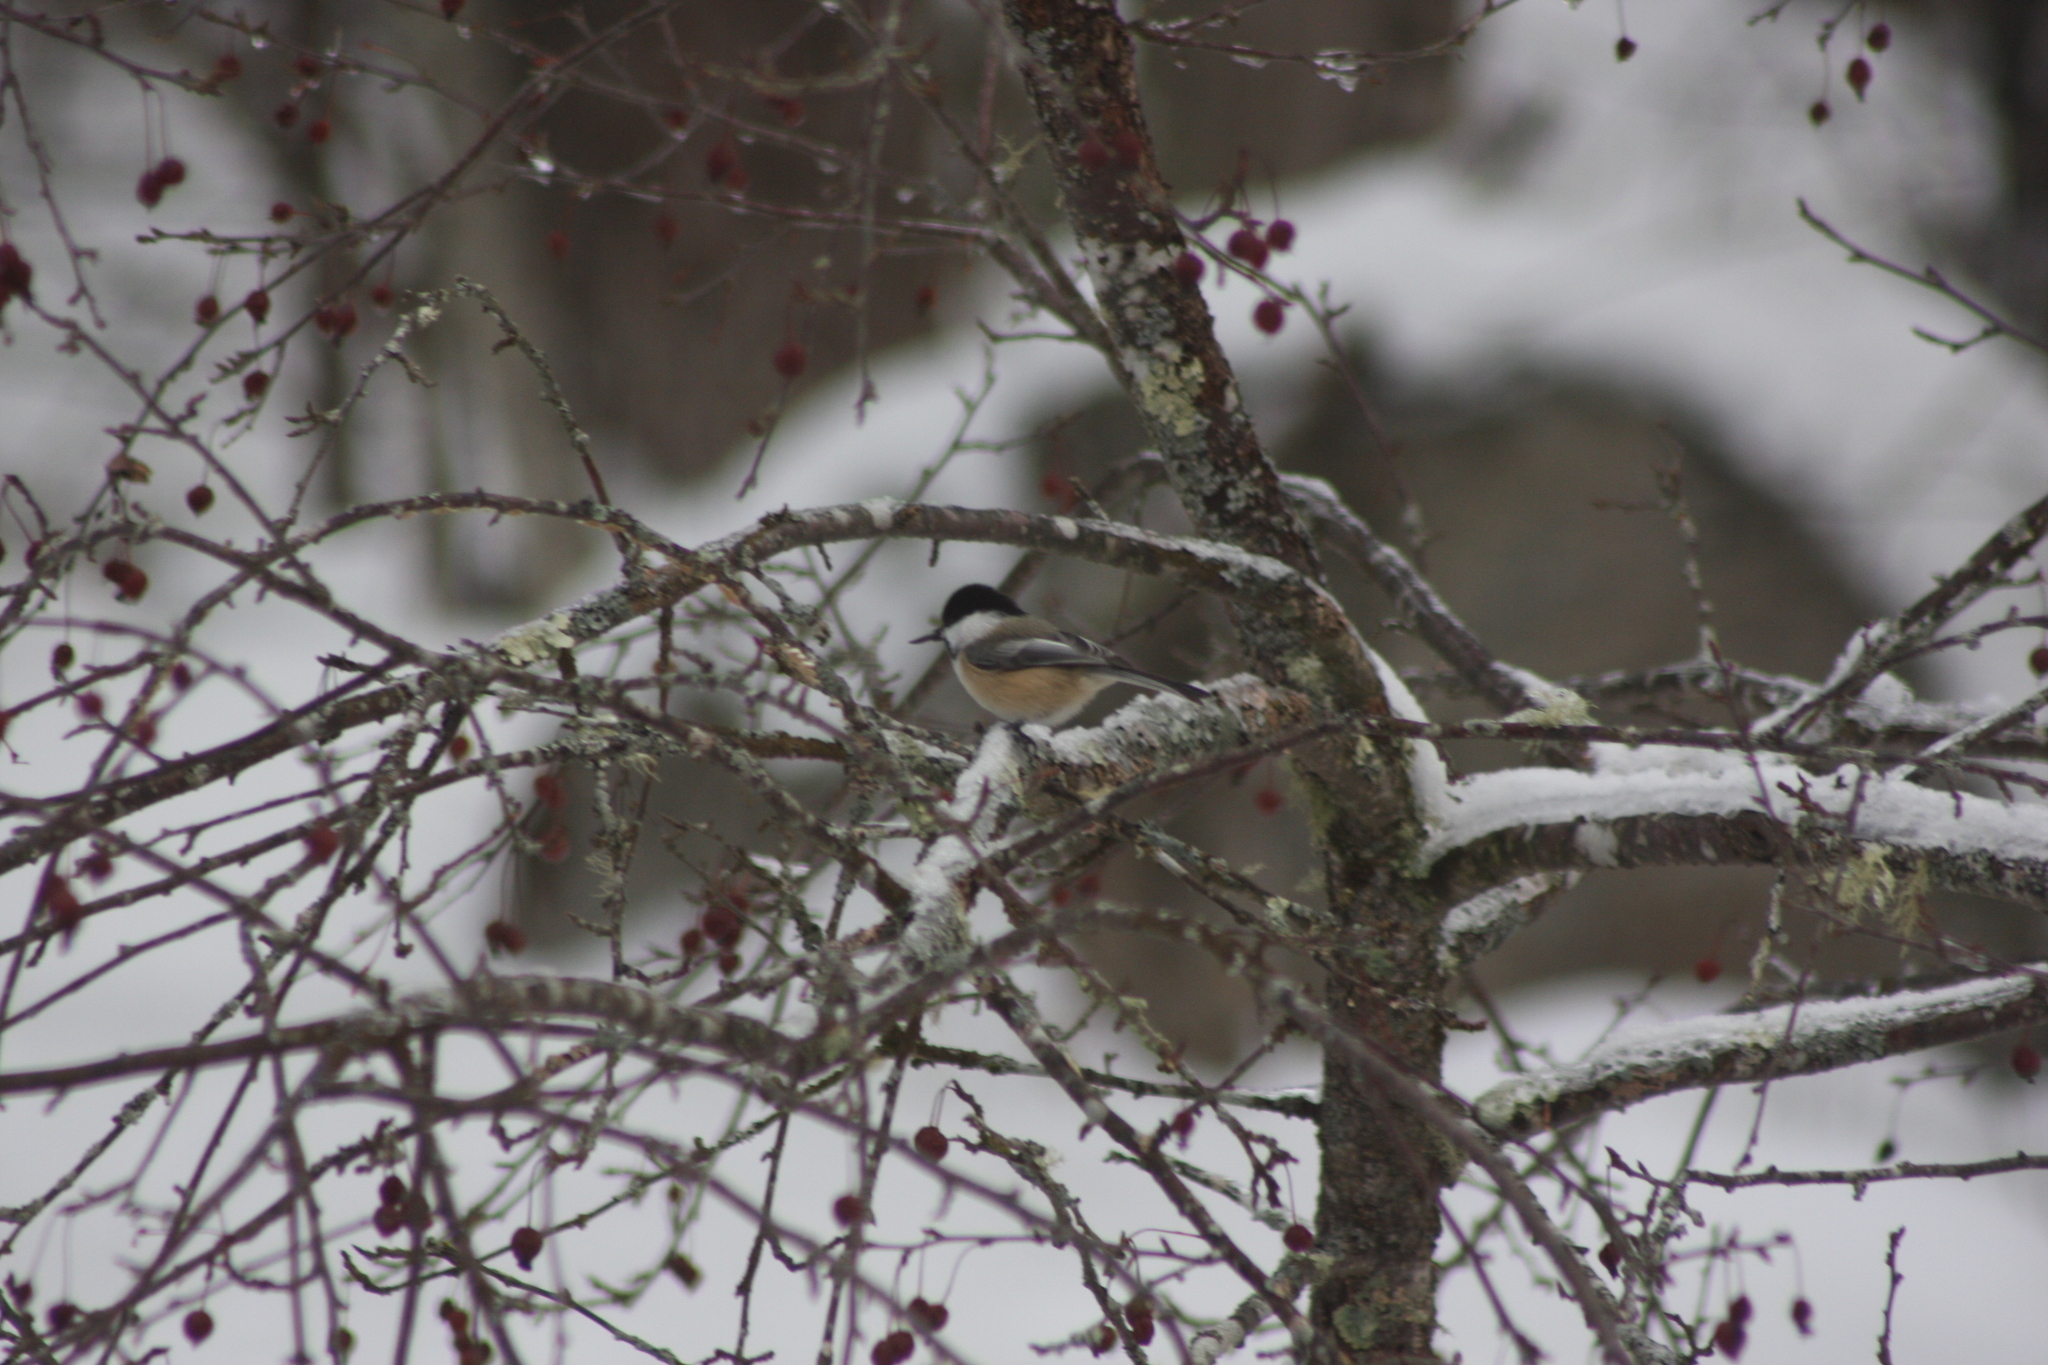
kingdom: Animalia
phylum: Chordata
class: Aves
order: Passeriformes
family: Paridae
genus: Poecile
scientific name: Poecile atricapillus
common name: Black-capped chickadee
